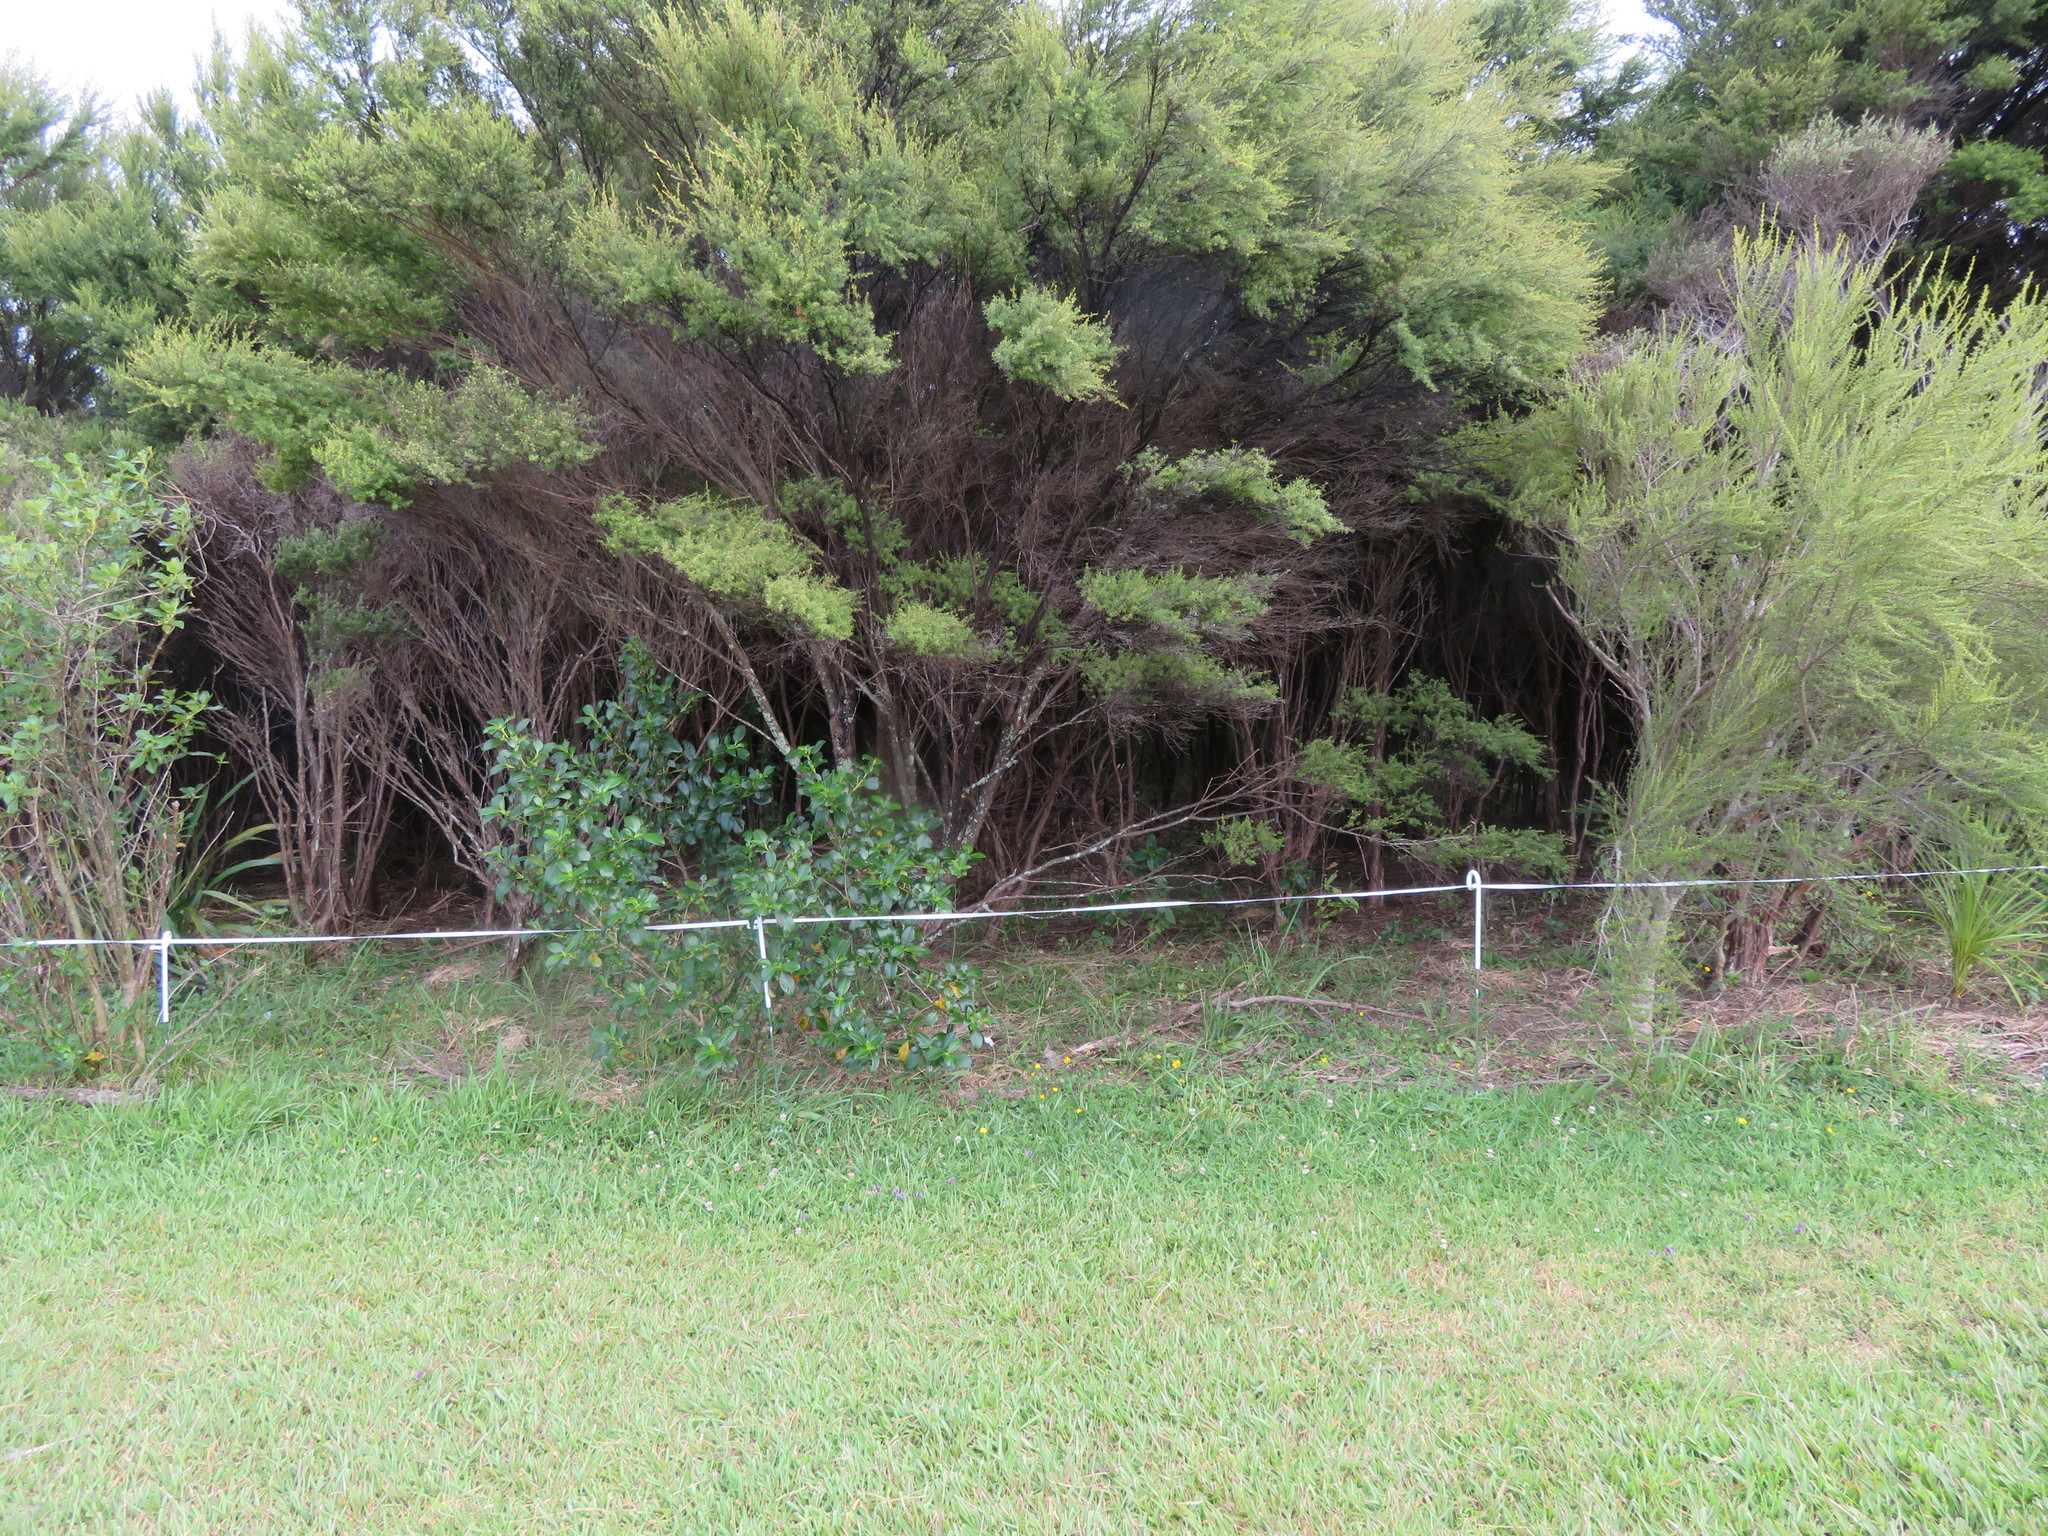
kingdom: Plantae
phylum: Tracheophyta
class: Magnoliopsida
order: Asterales
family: Asteraceae
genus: Olearia
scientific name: Olearia solandri
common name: Coastal daisybush
